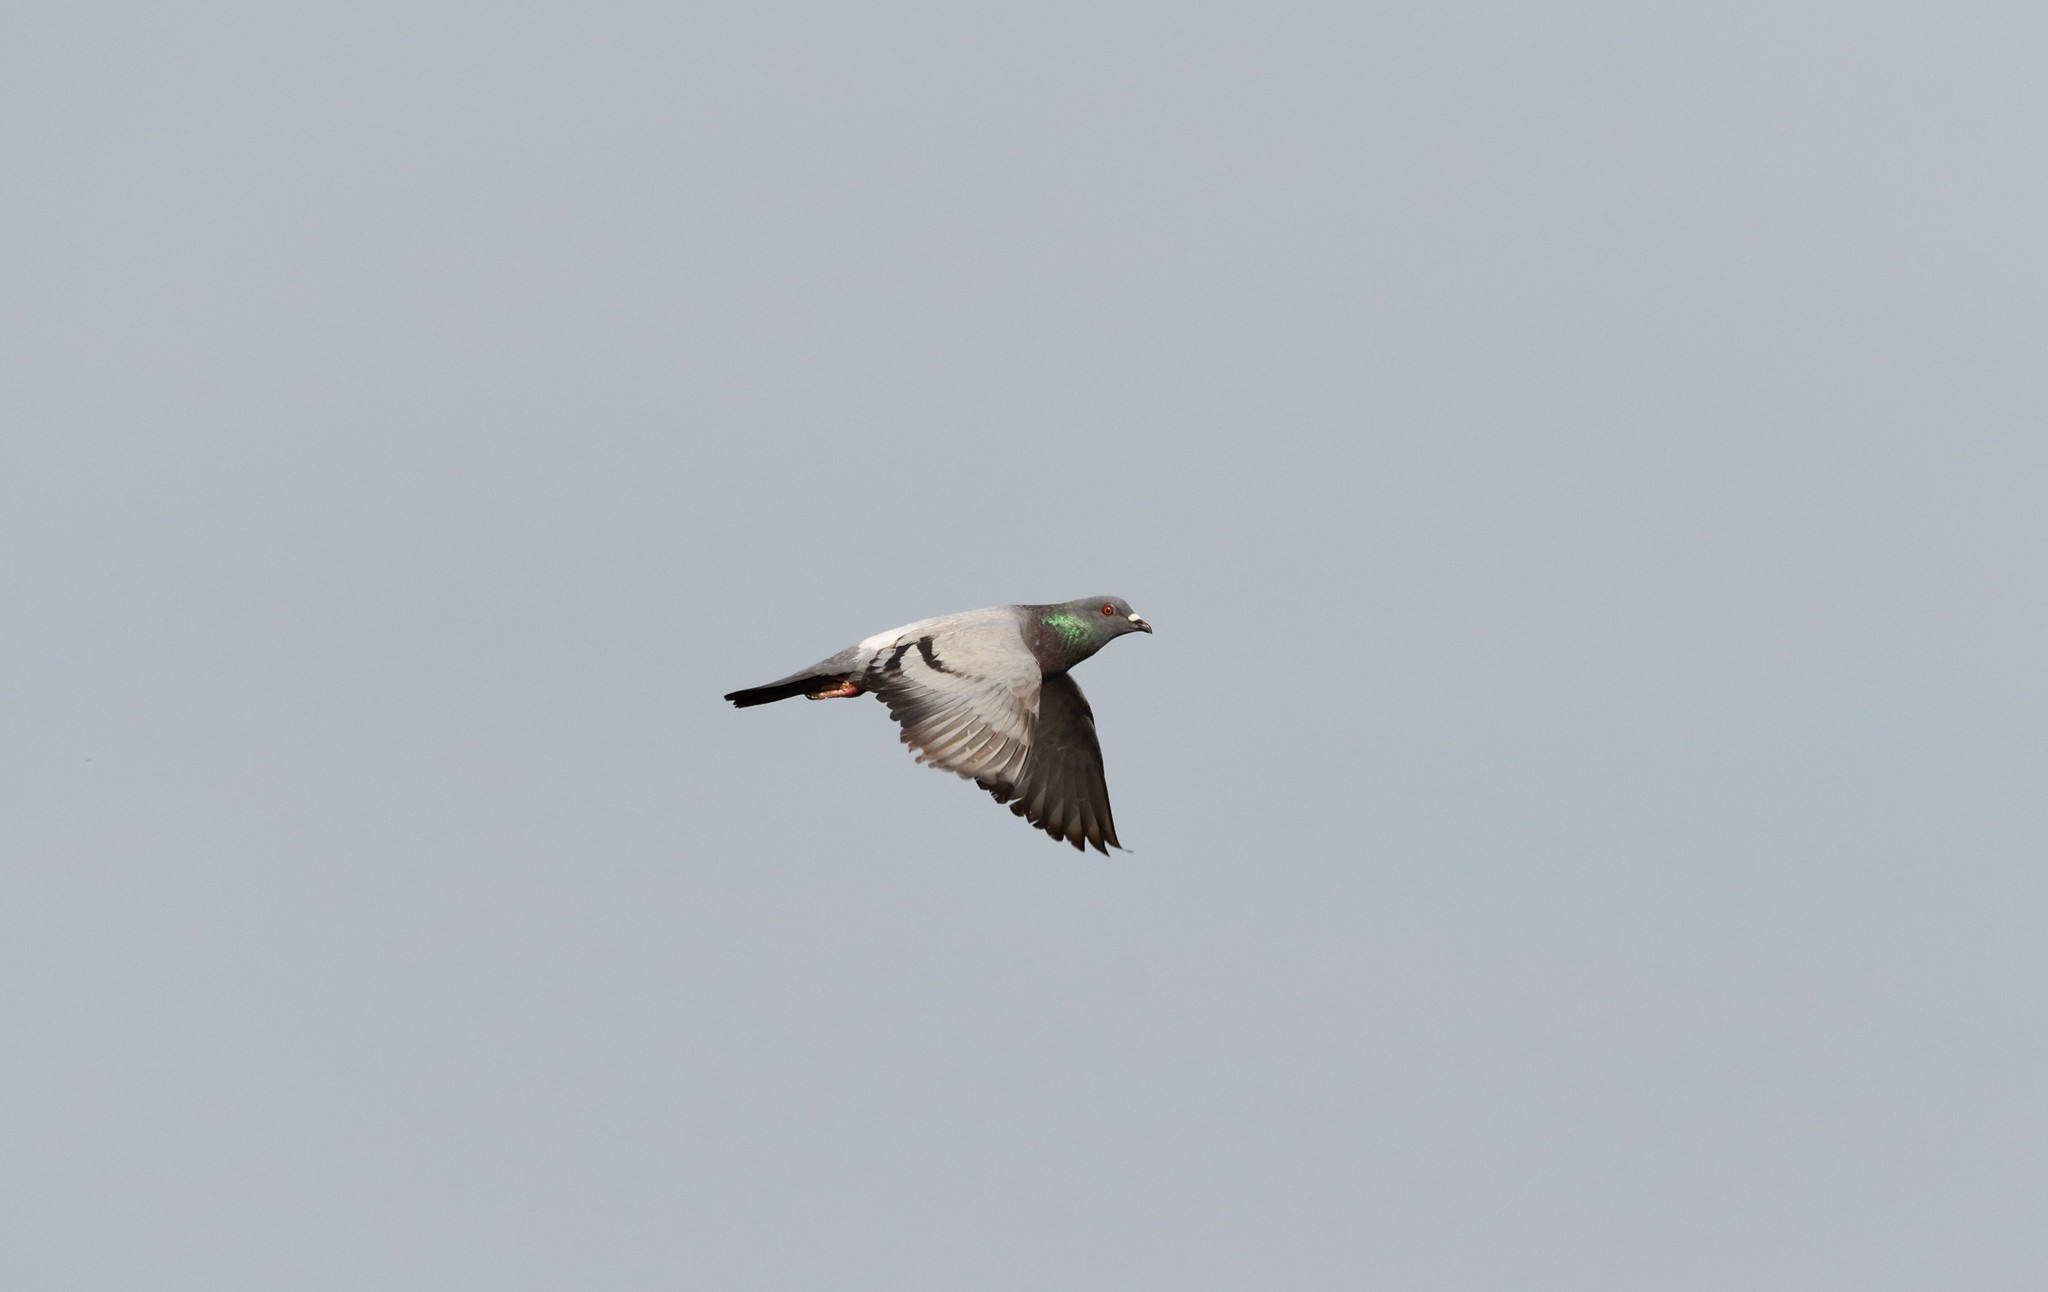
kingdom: Animalia
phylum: Chordata
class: Aves
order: Columbiformes
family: Columbidae
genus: Columba
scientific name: Columba livia
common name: Rock pigeon
